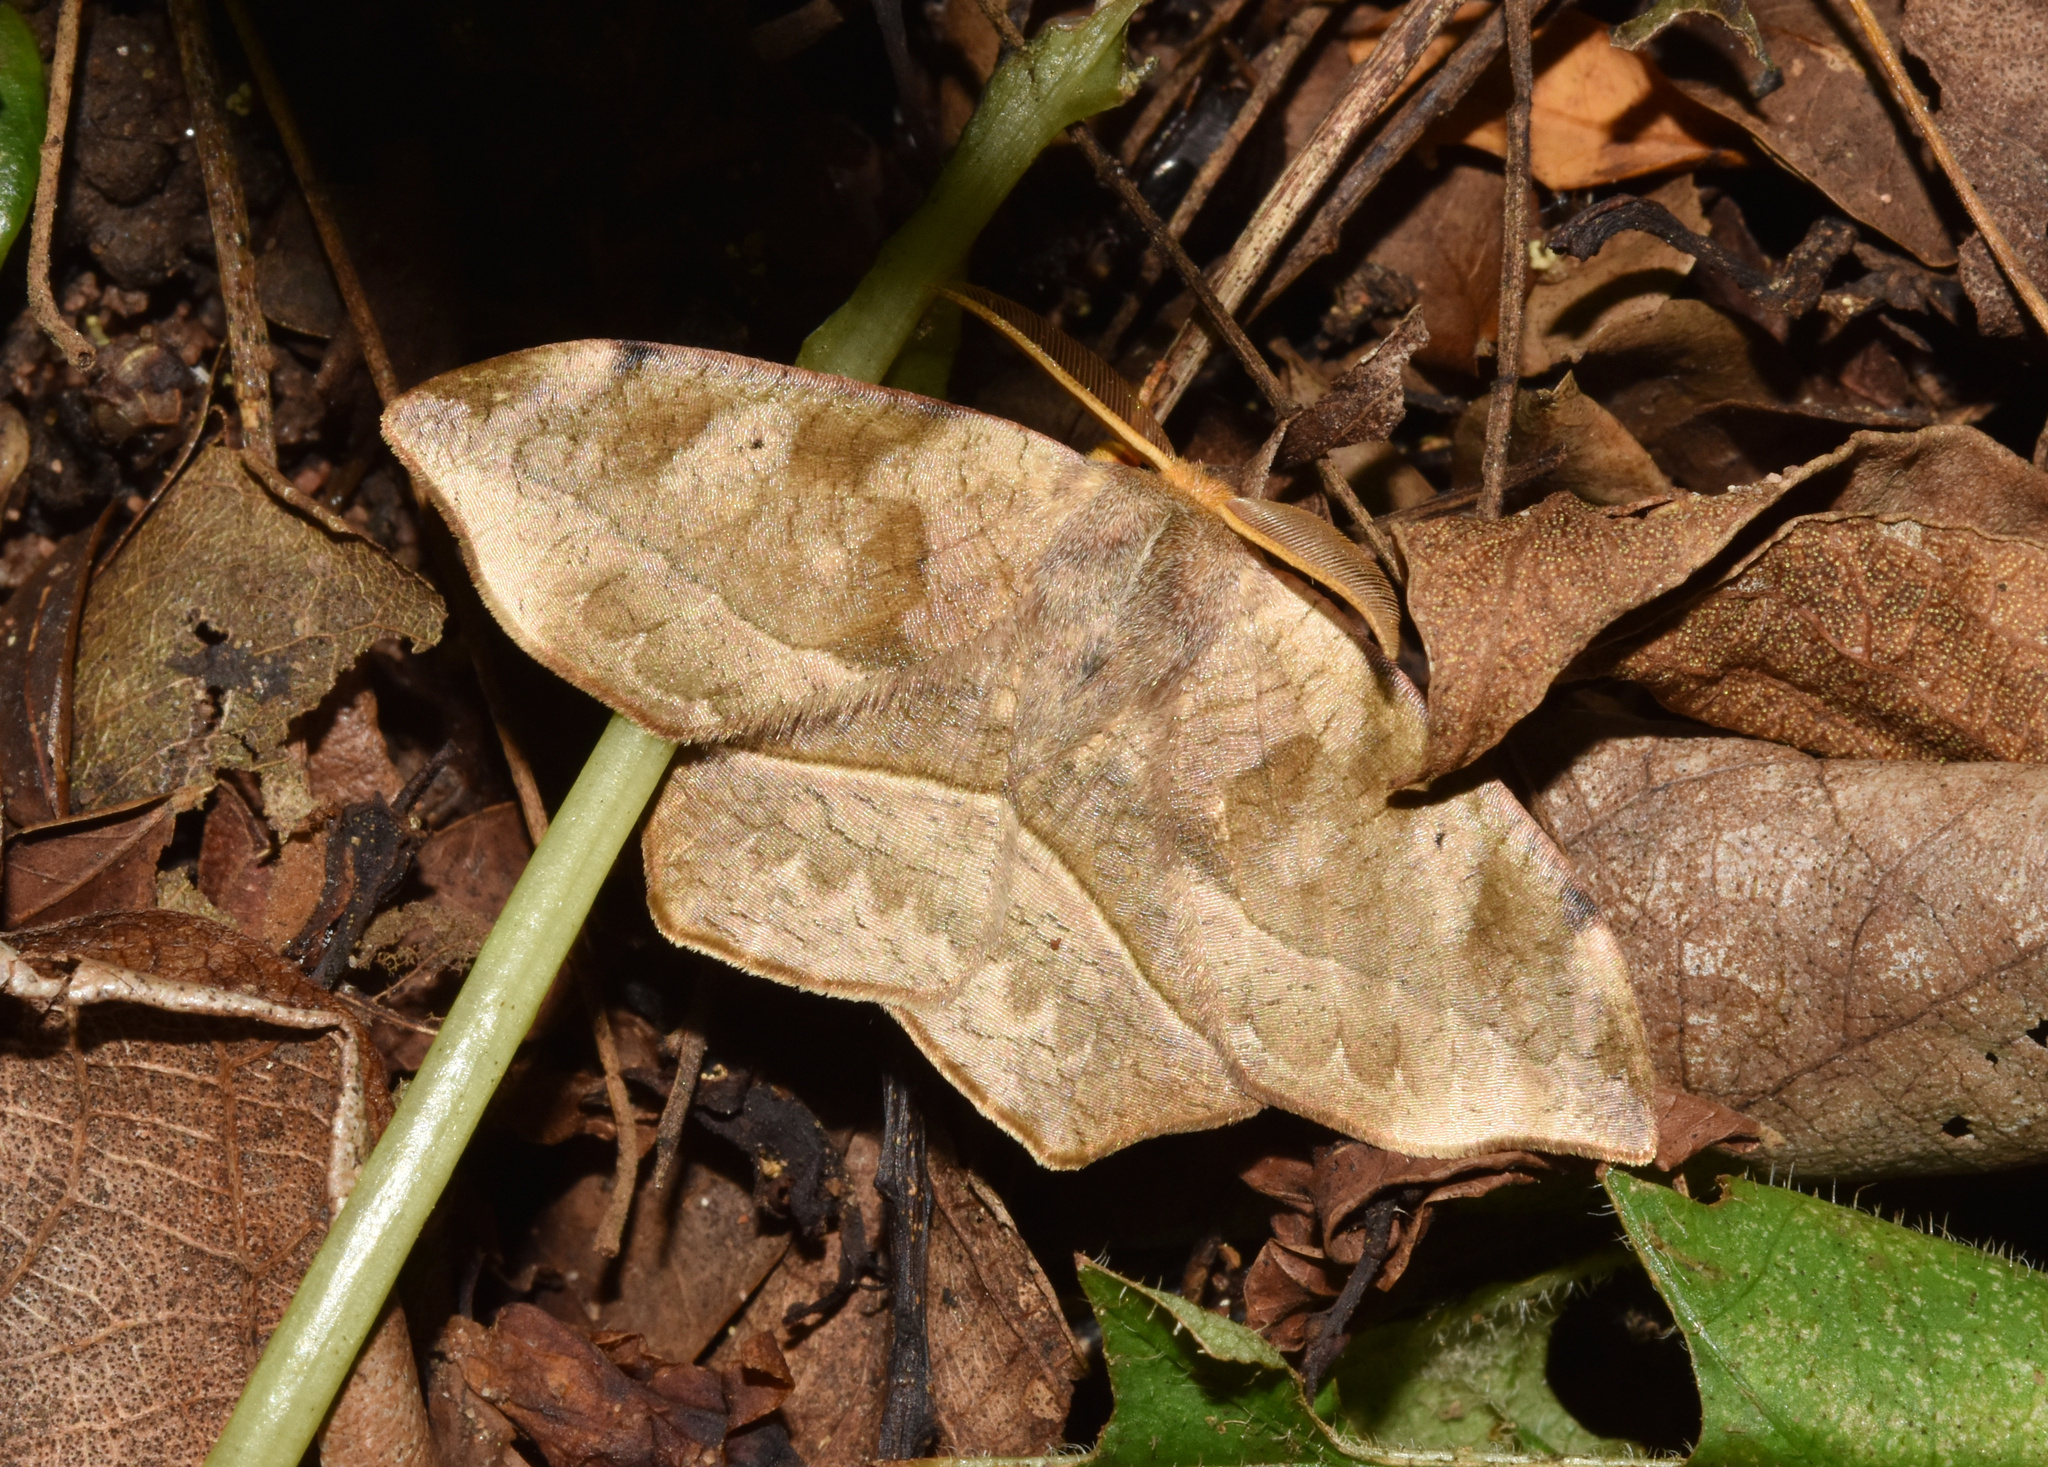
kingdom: Animalia
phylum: Arthropoda
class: Insecta
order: Lepidoptera
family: Drepanidae
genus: Negera
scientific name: Negera natalensis
